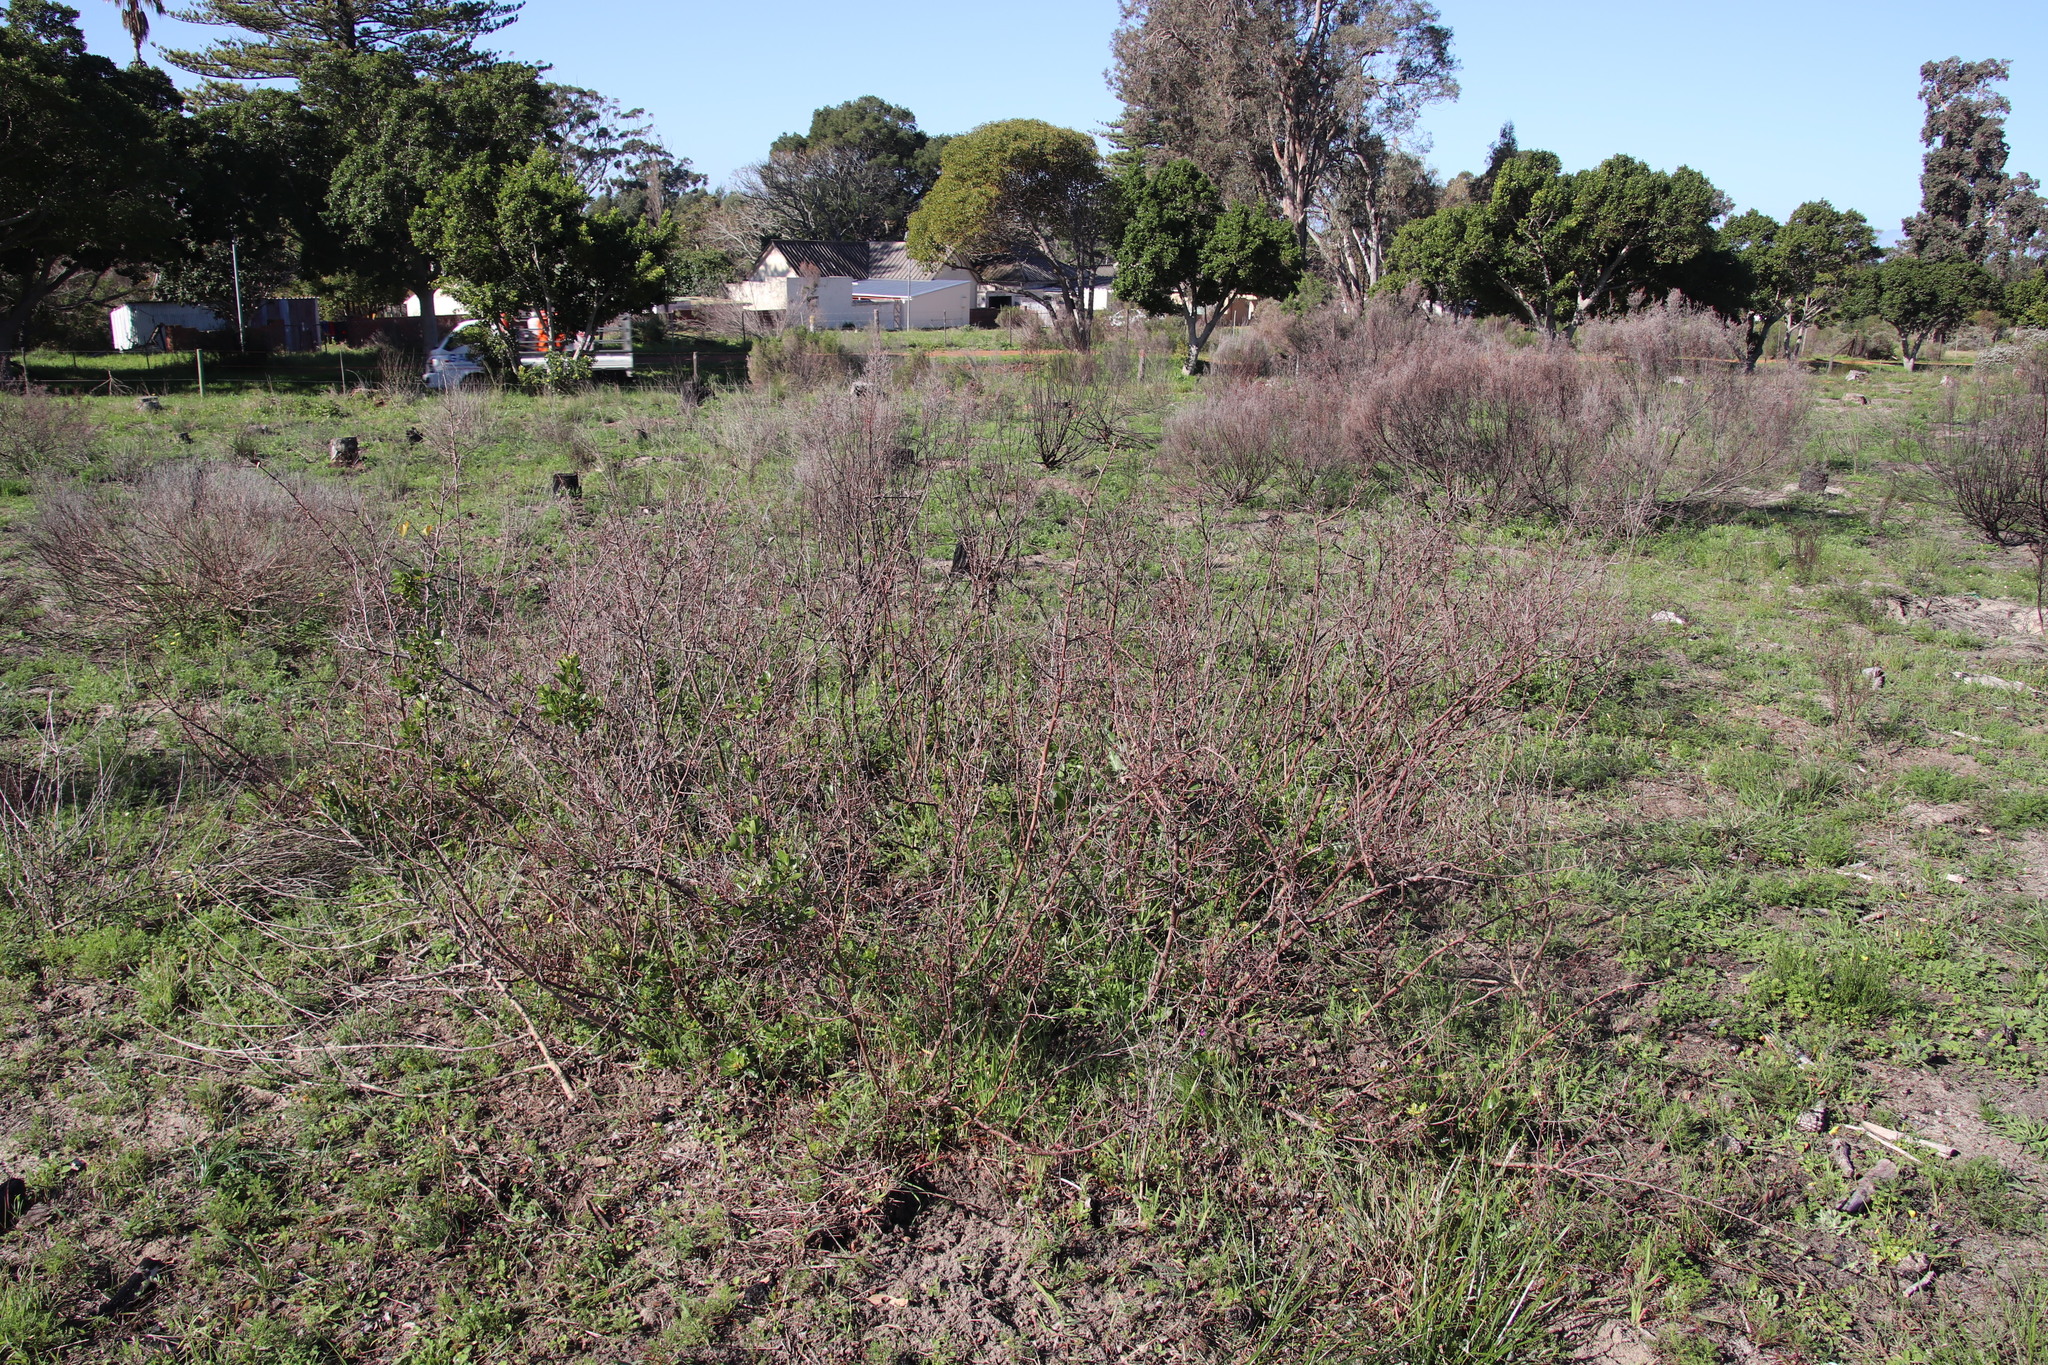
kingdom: Plantae
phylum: Tracheophyta
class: Magnoliopsida
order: Sapindales
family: Anacardiaceae
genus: Searsia
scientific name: Searsia laevigata
